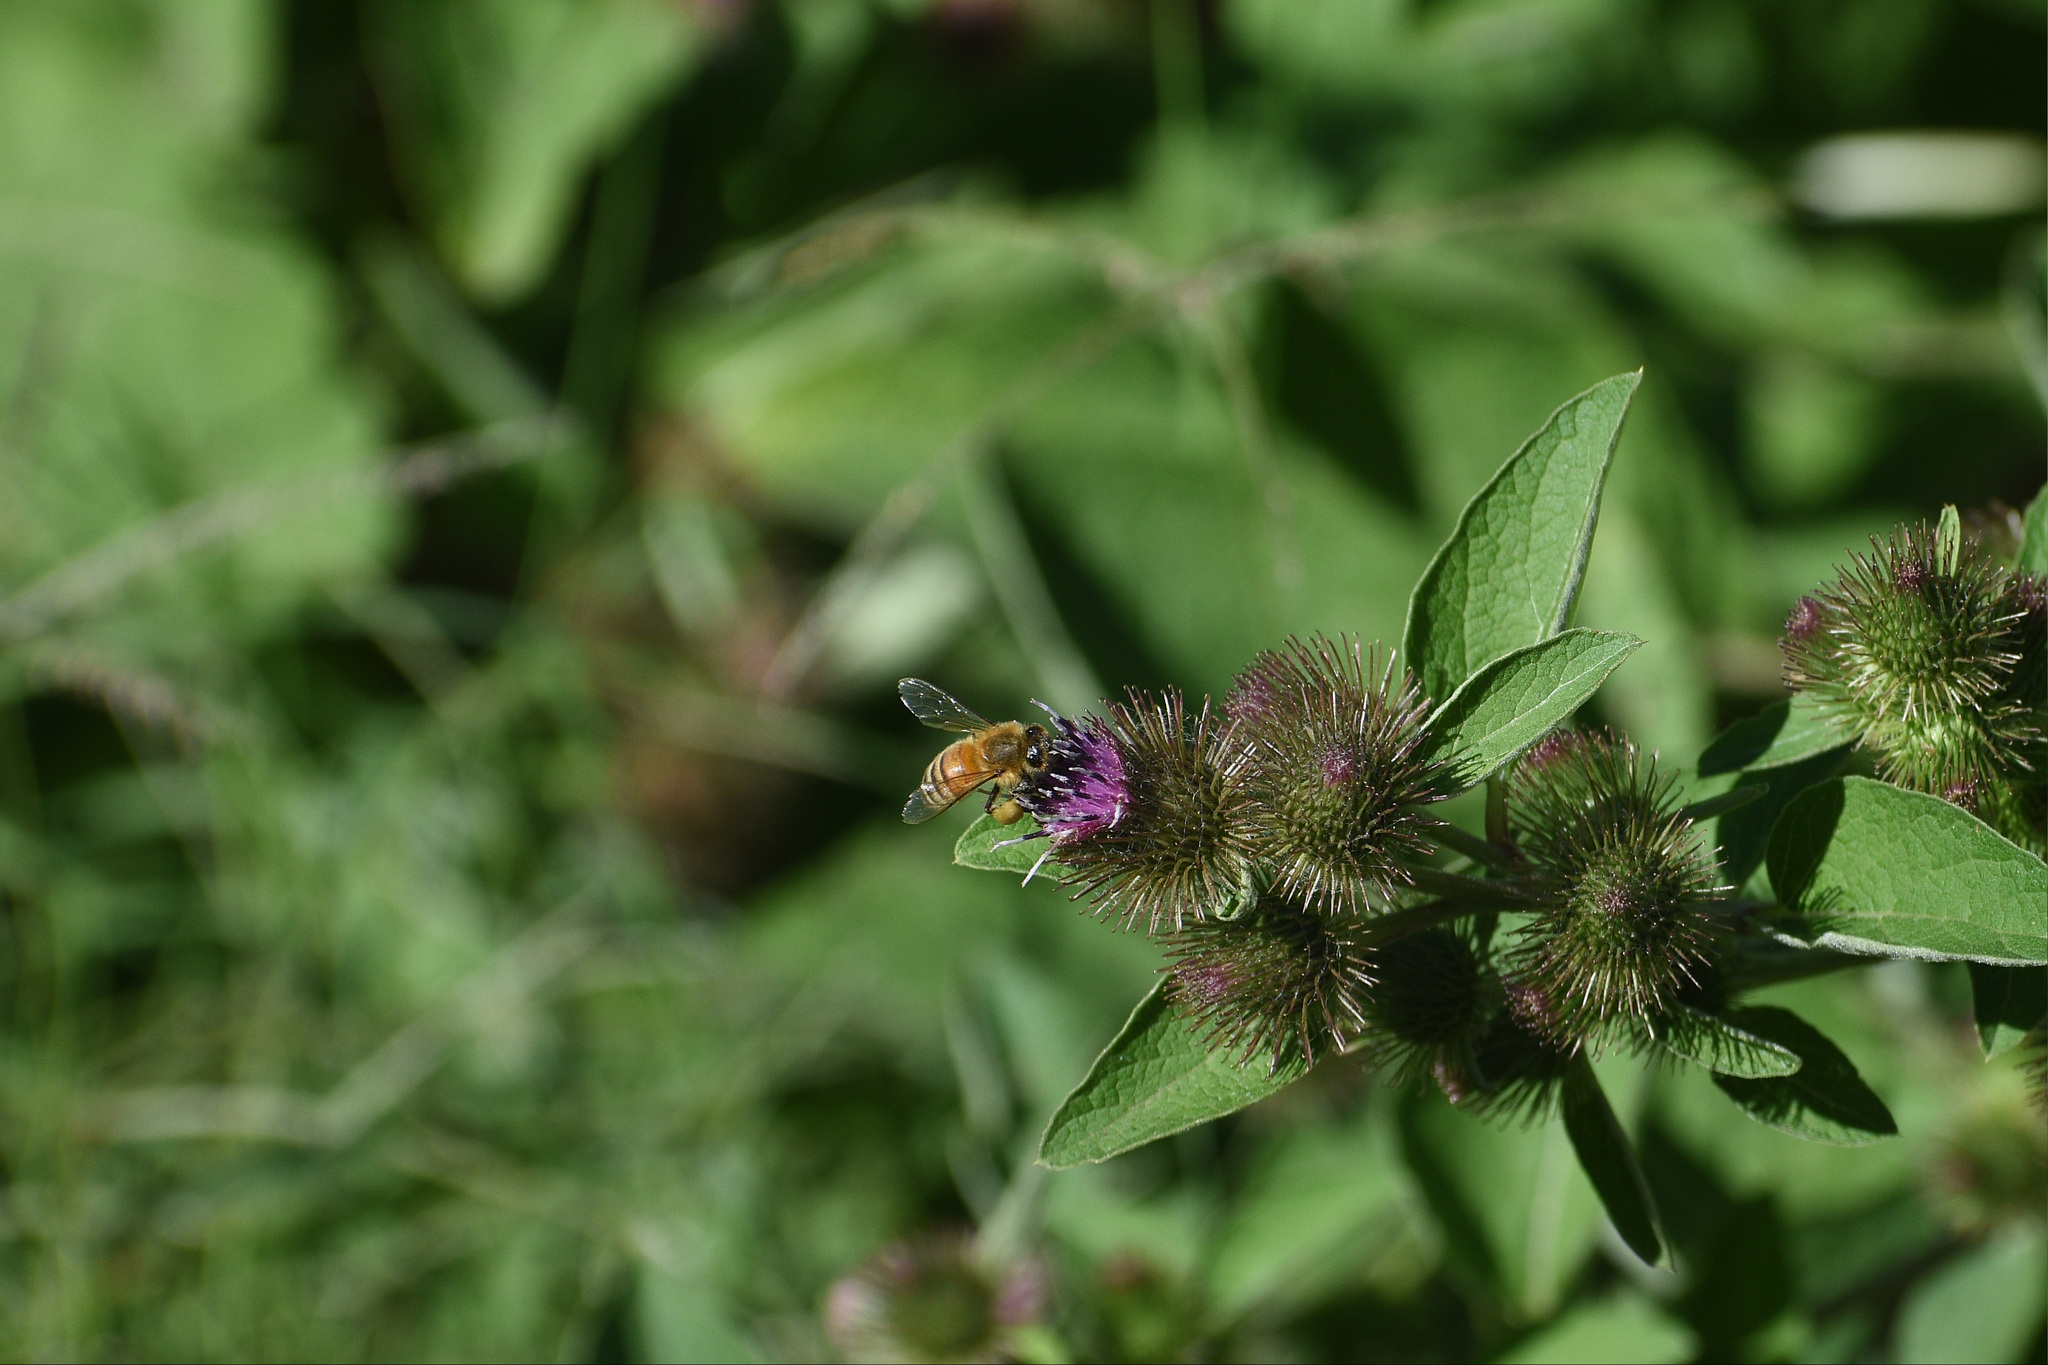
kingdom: Animalia
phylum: Arthropoda
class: Insecta
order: Hymenoptera
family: Apidae
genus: Apis
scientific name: Apis mellifera
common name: Honey bee
